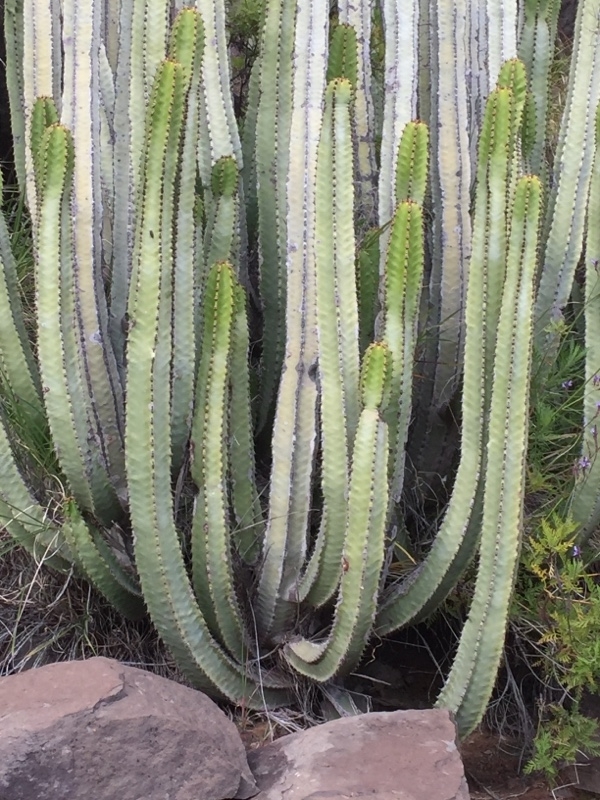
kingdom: Plantae
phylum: Tracheophyta
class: Magnoliopsida
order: Malpighiales
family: Euphorbiaceae
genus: Euphorbia
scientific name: Euphorbia canariensis
